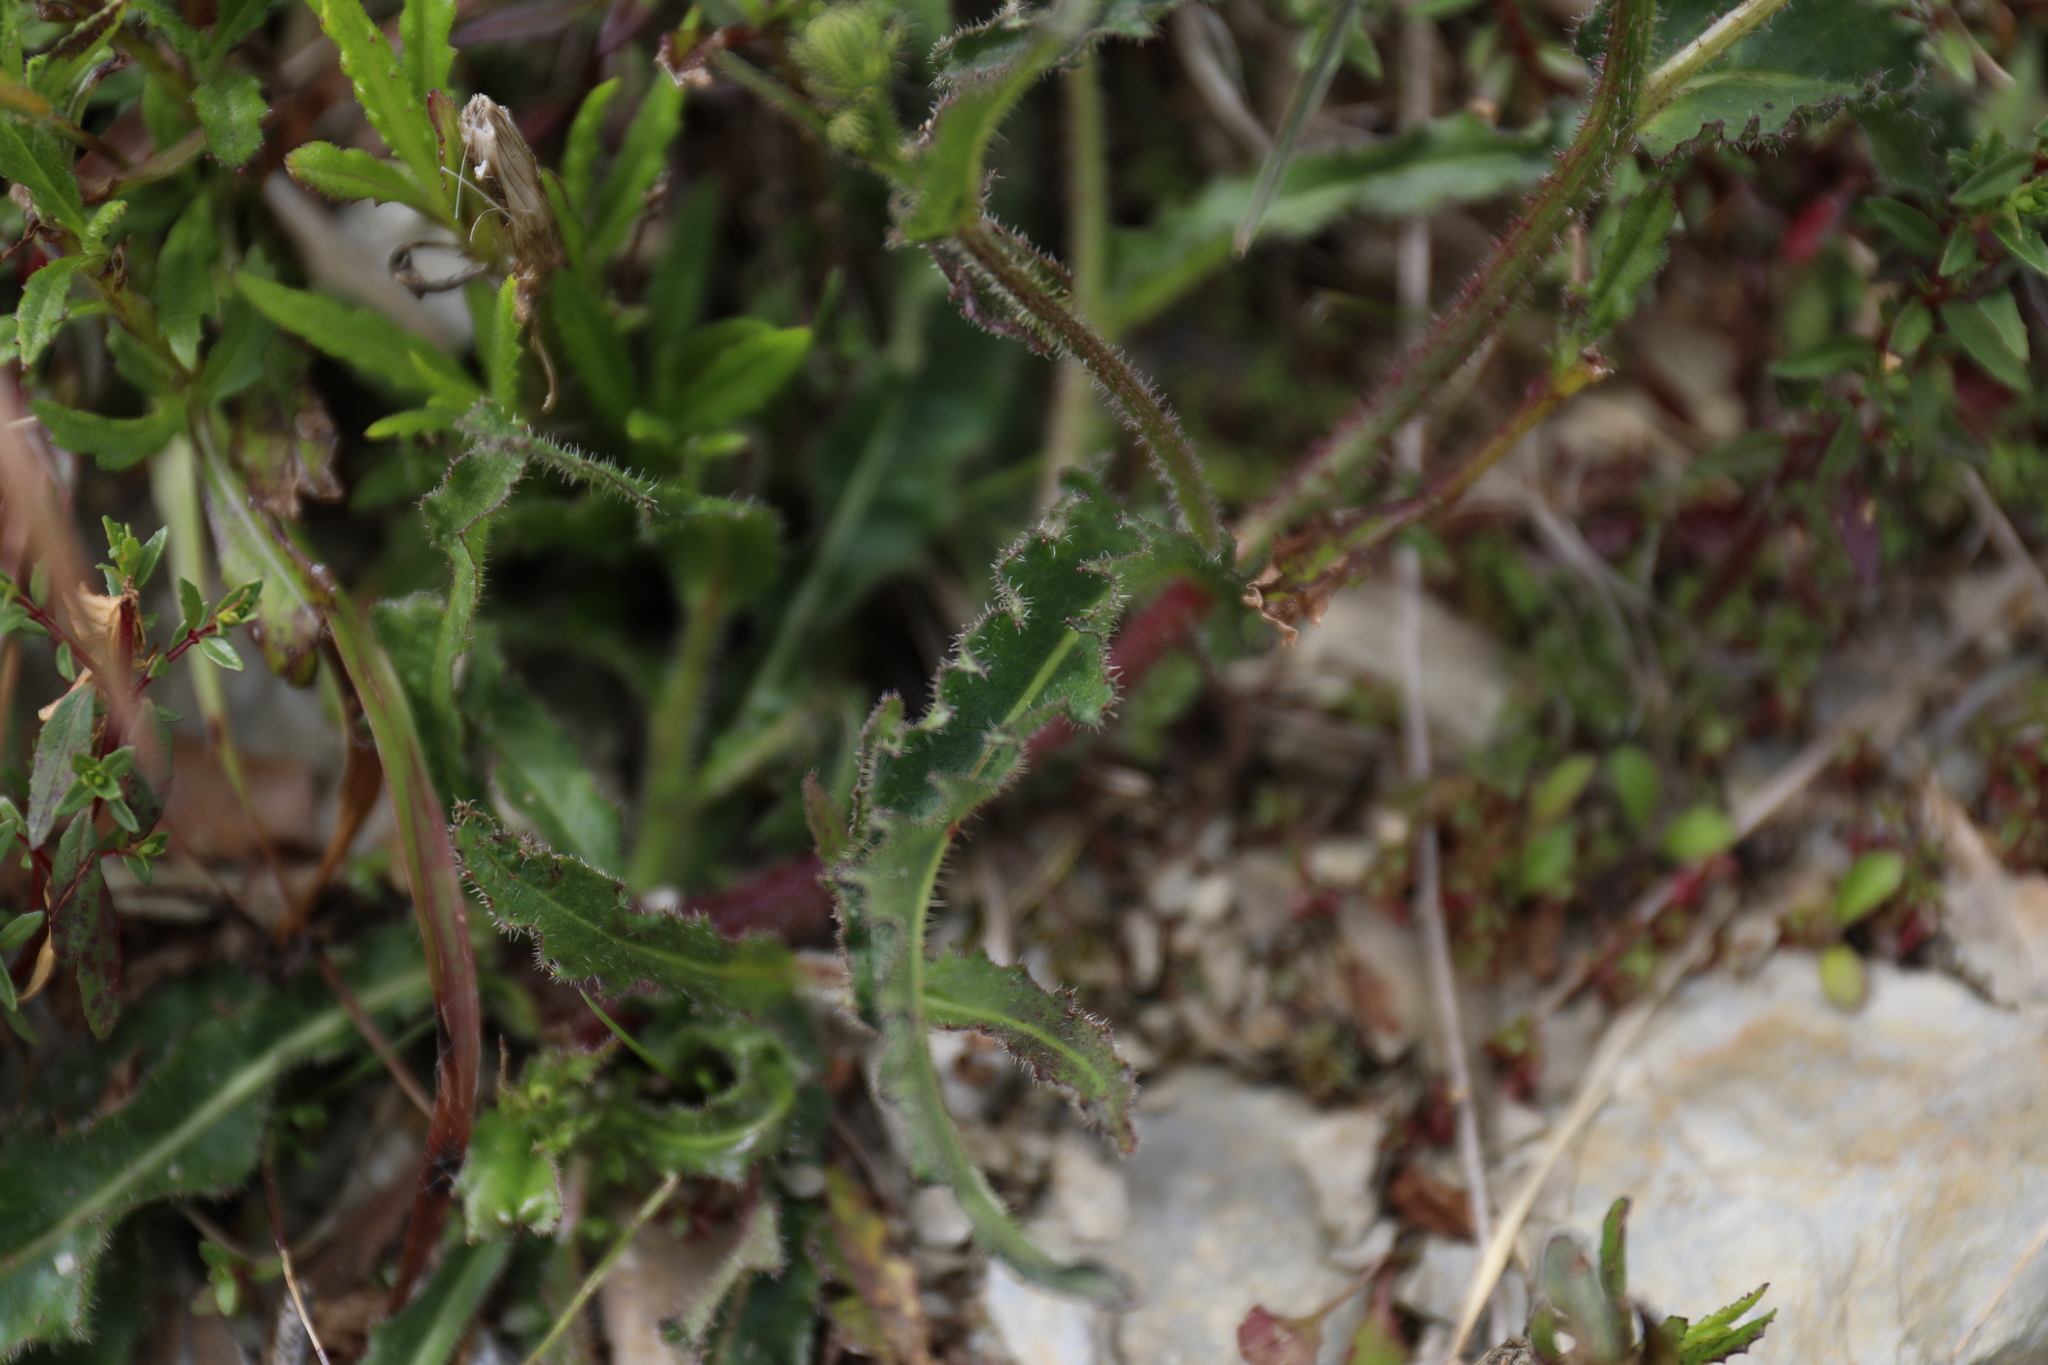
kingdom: Plantae
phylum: Tracheophyta
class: Magnoliopsida
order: Asterales
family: Asteraceae
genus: Picris
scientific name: Picris angustifolia
